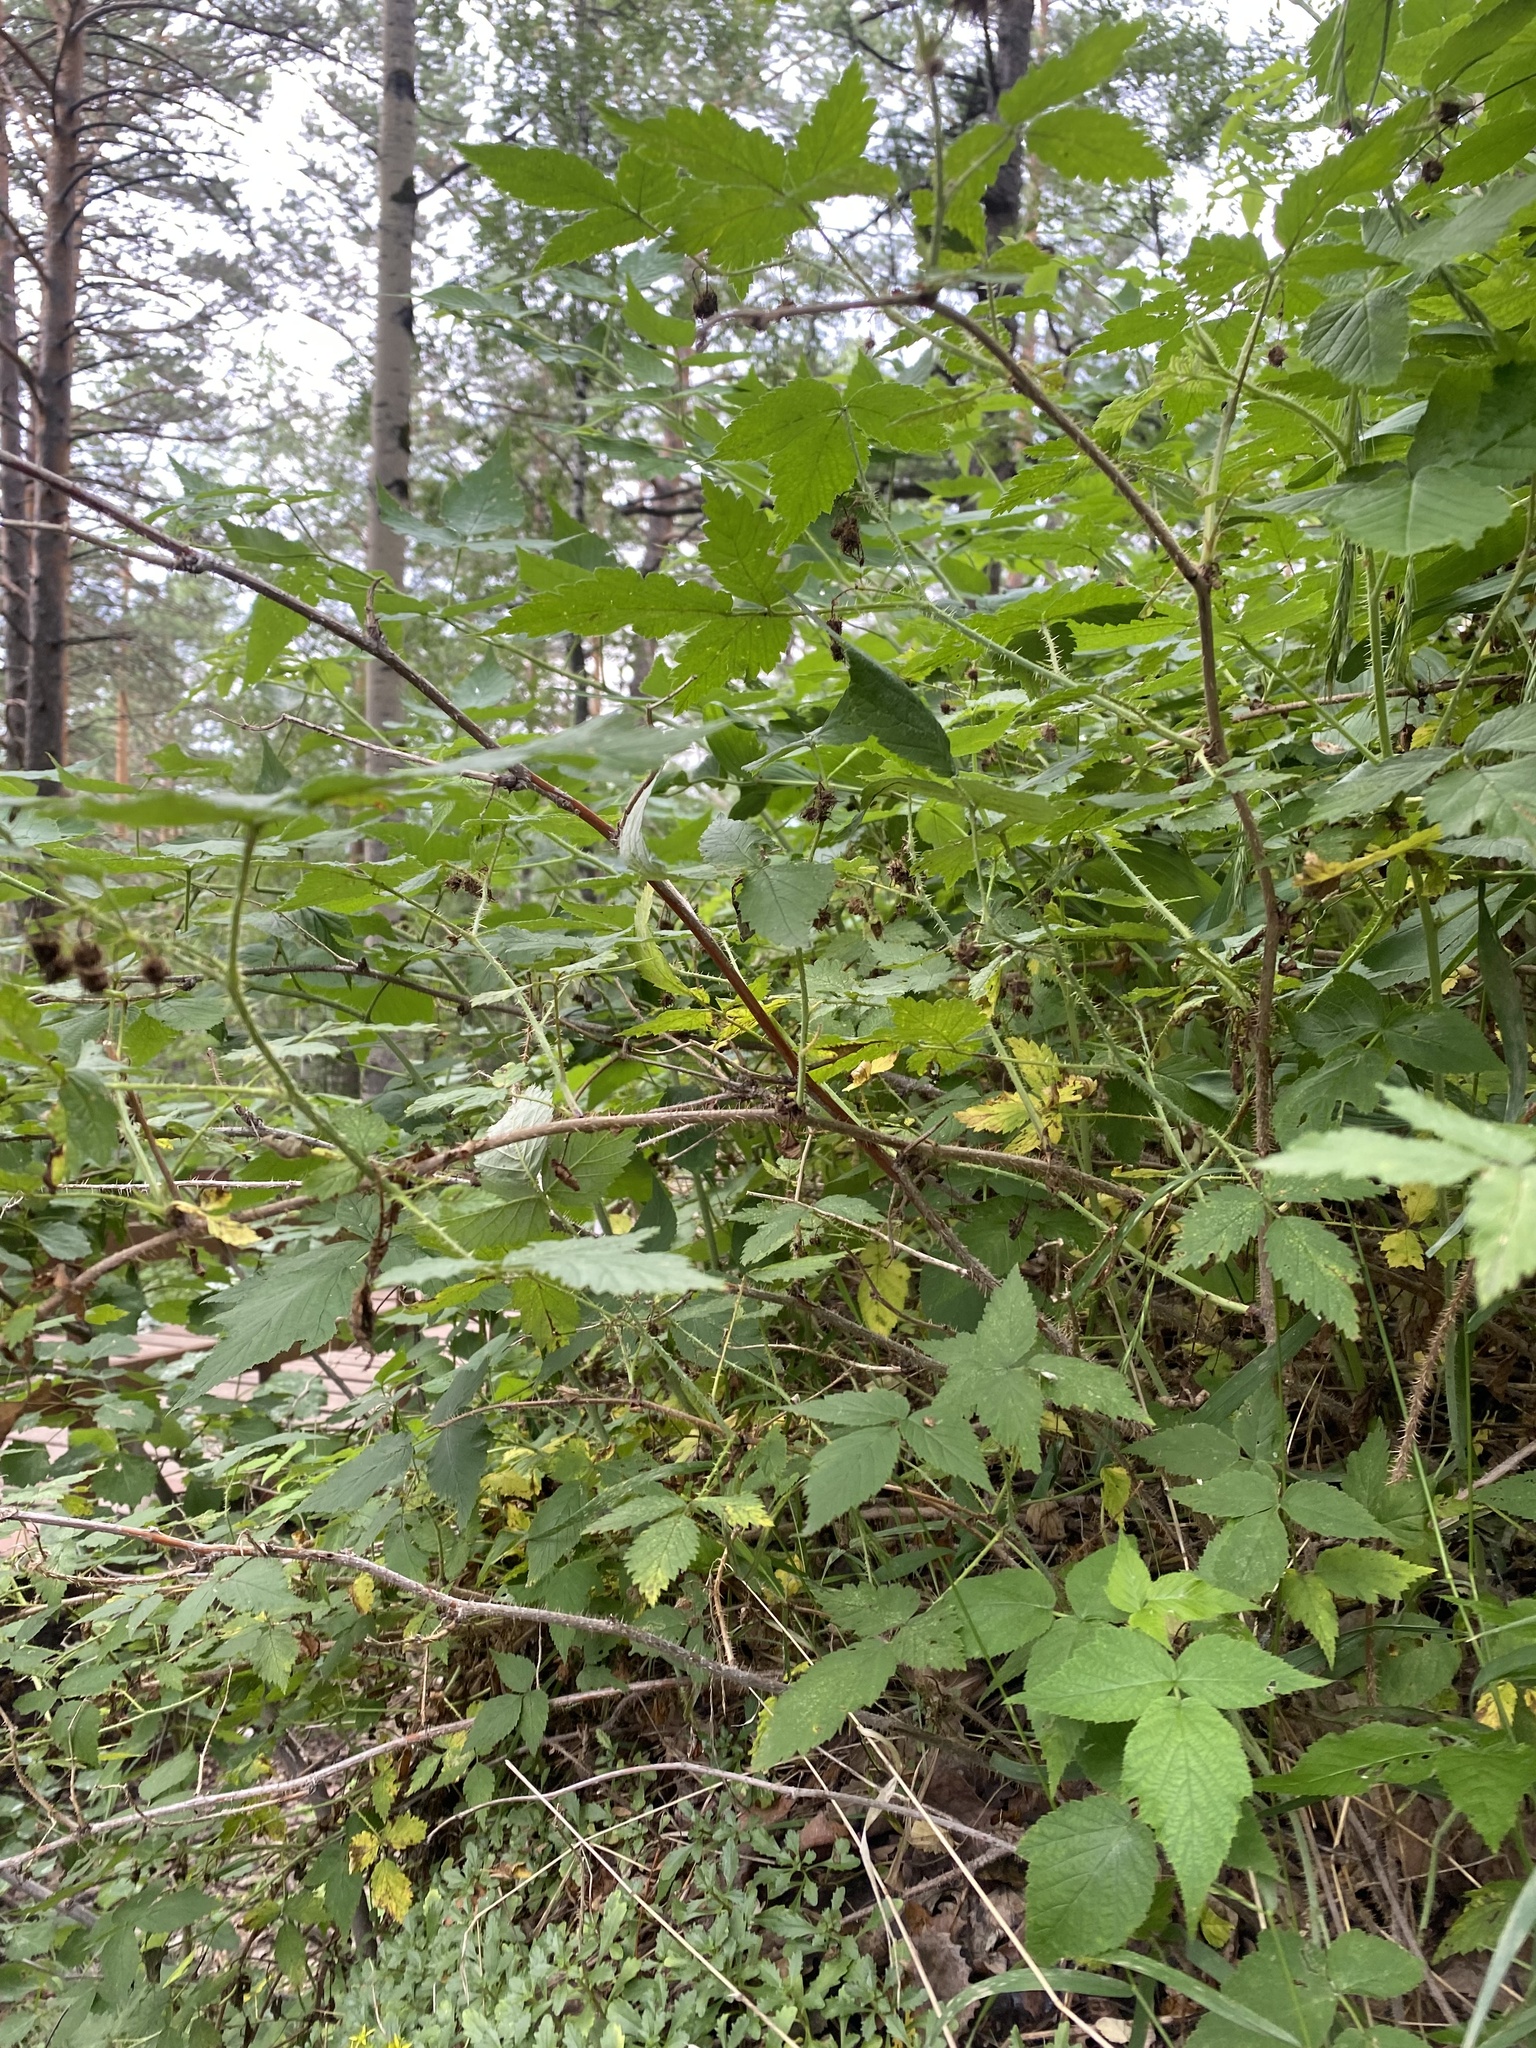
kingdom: Plantae
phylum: Tracheophyta
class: Magnoliopsida
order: Rosales
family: Rosaceae
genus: Rubus
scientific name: Rubus sachalinensis
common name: Red raspberry
